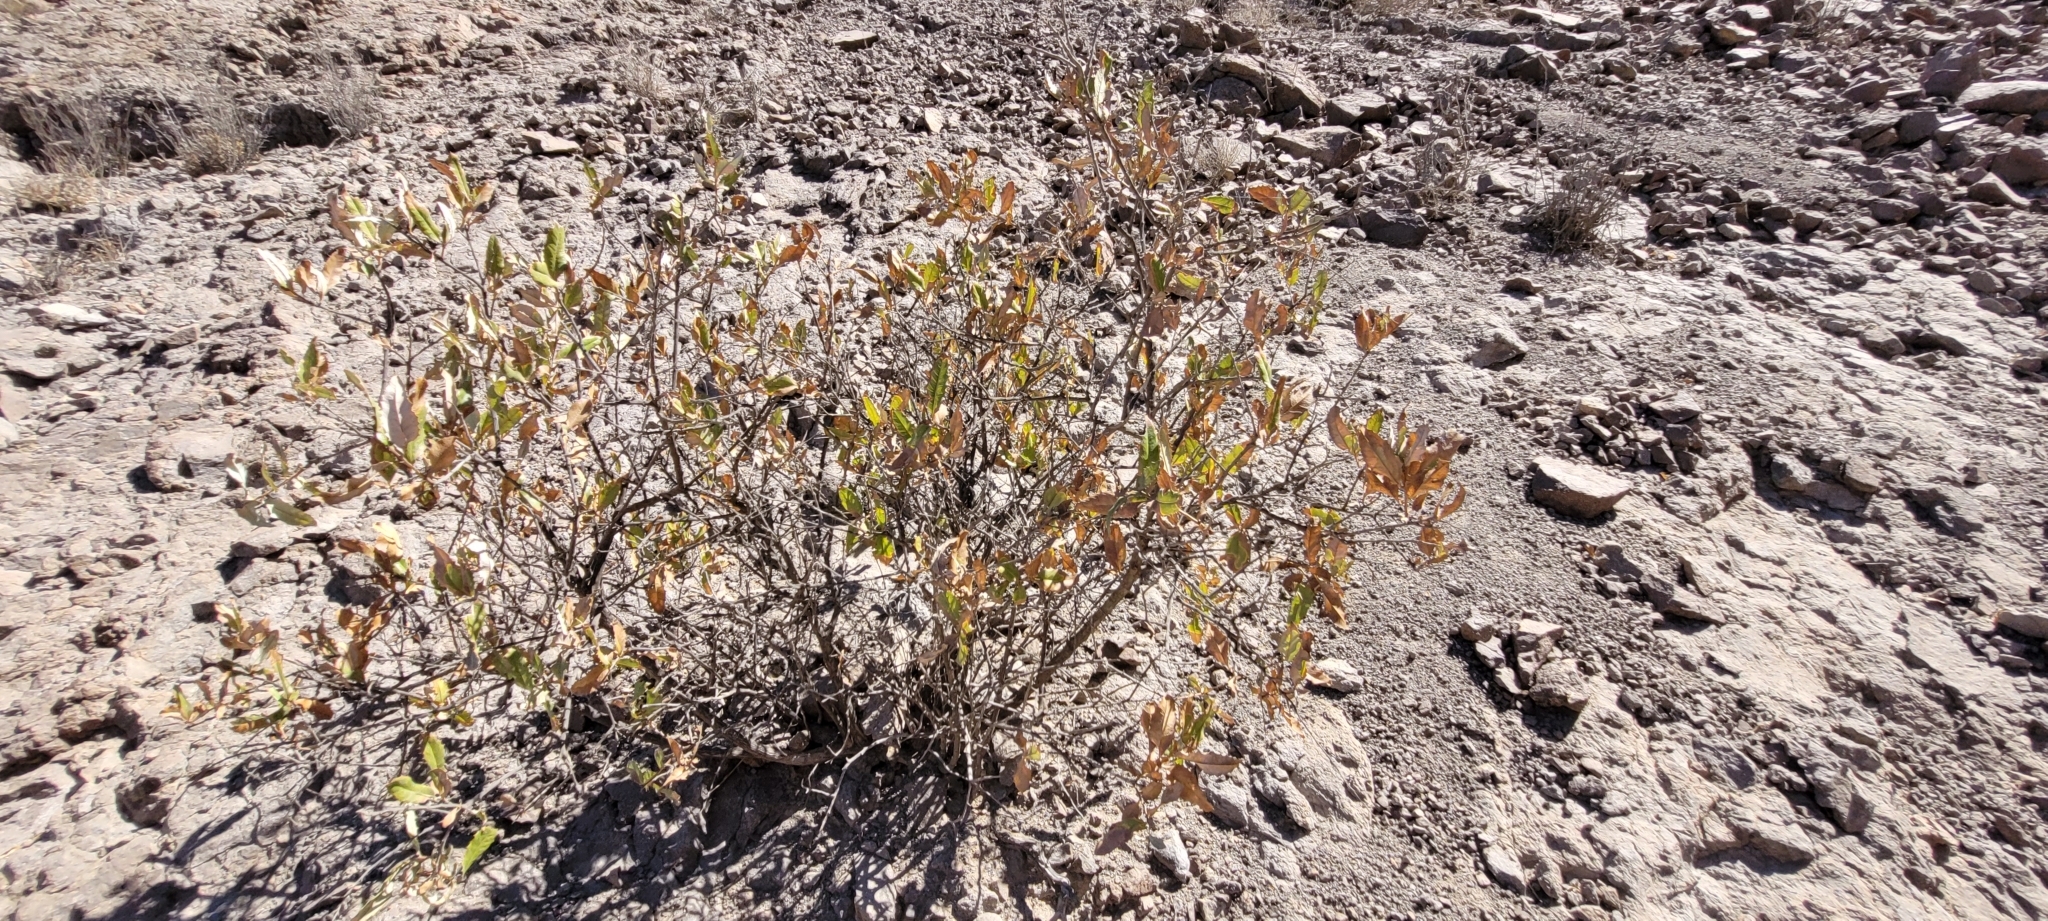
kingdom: Plantae
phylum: Tracheophyta
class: Magnoliopsida
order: Asterales
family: Asteraceae
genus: Spinoliva
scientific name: Spinoliva ilicifolia
